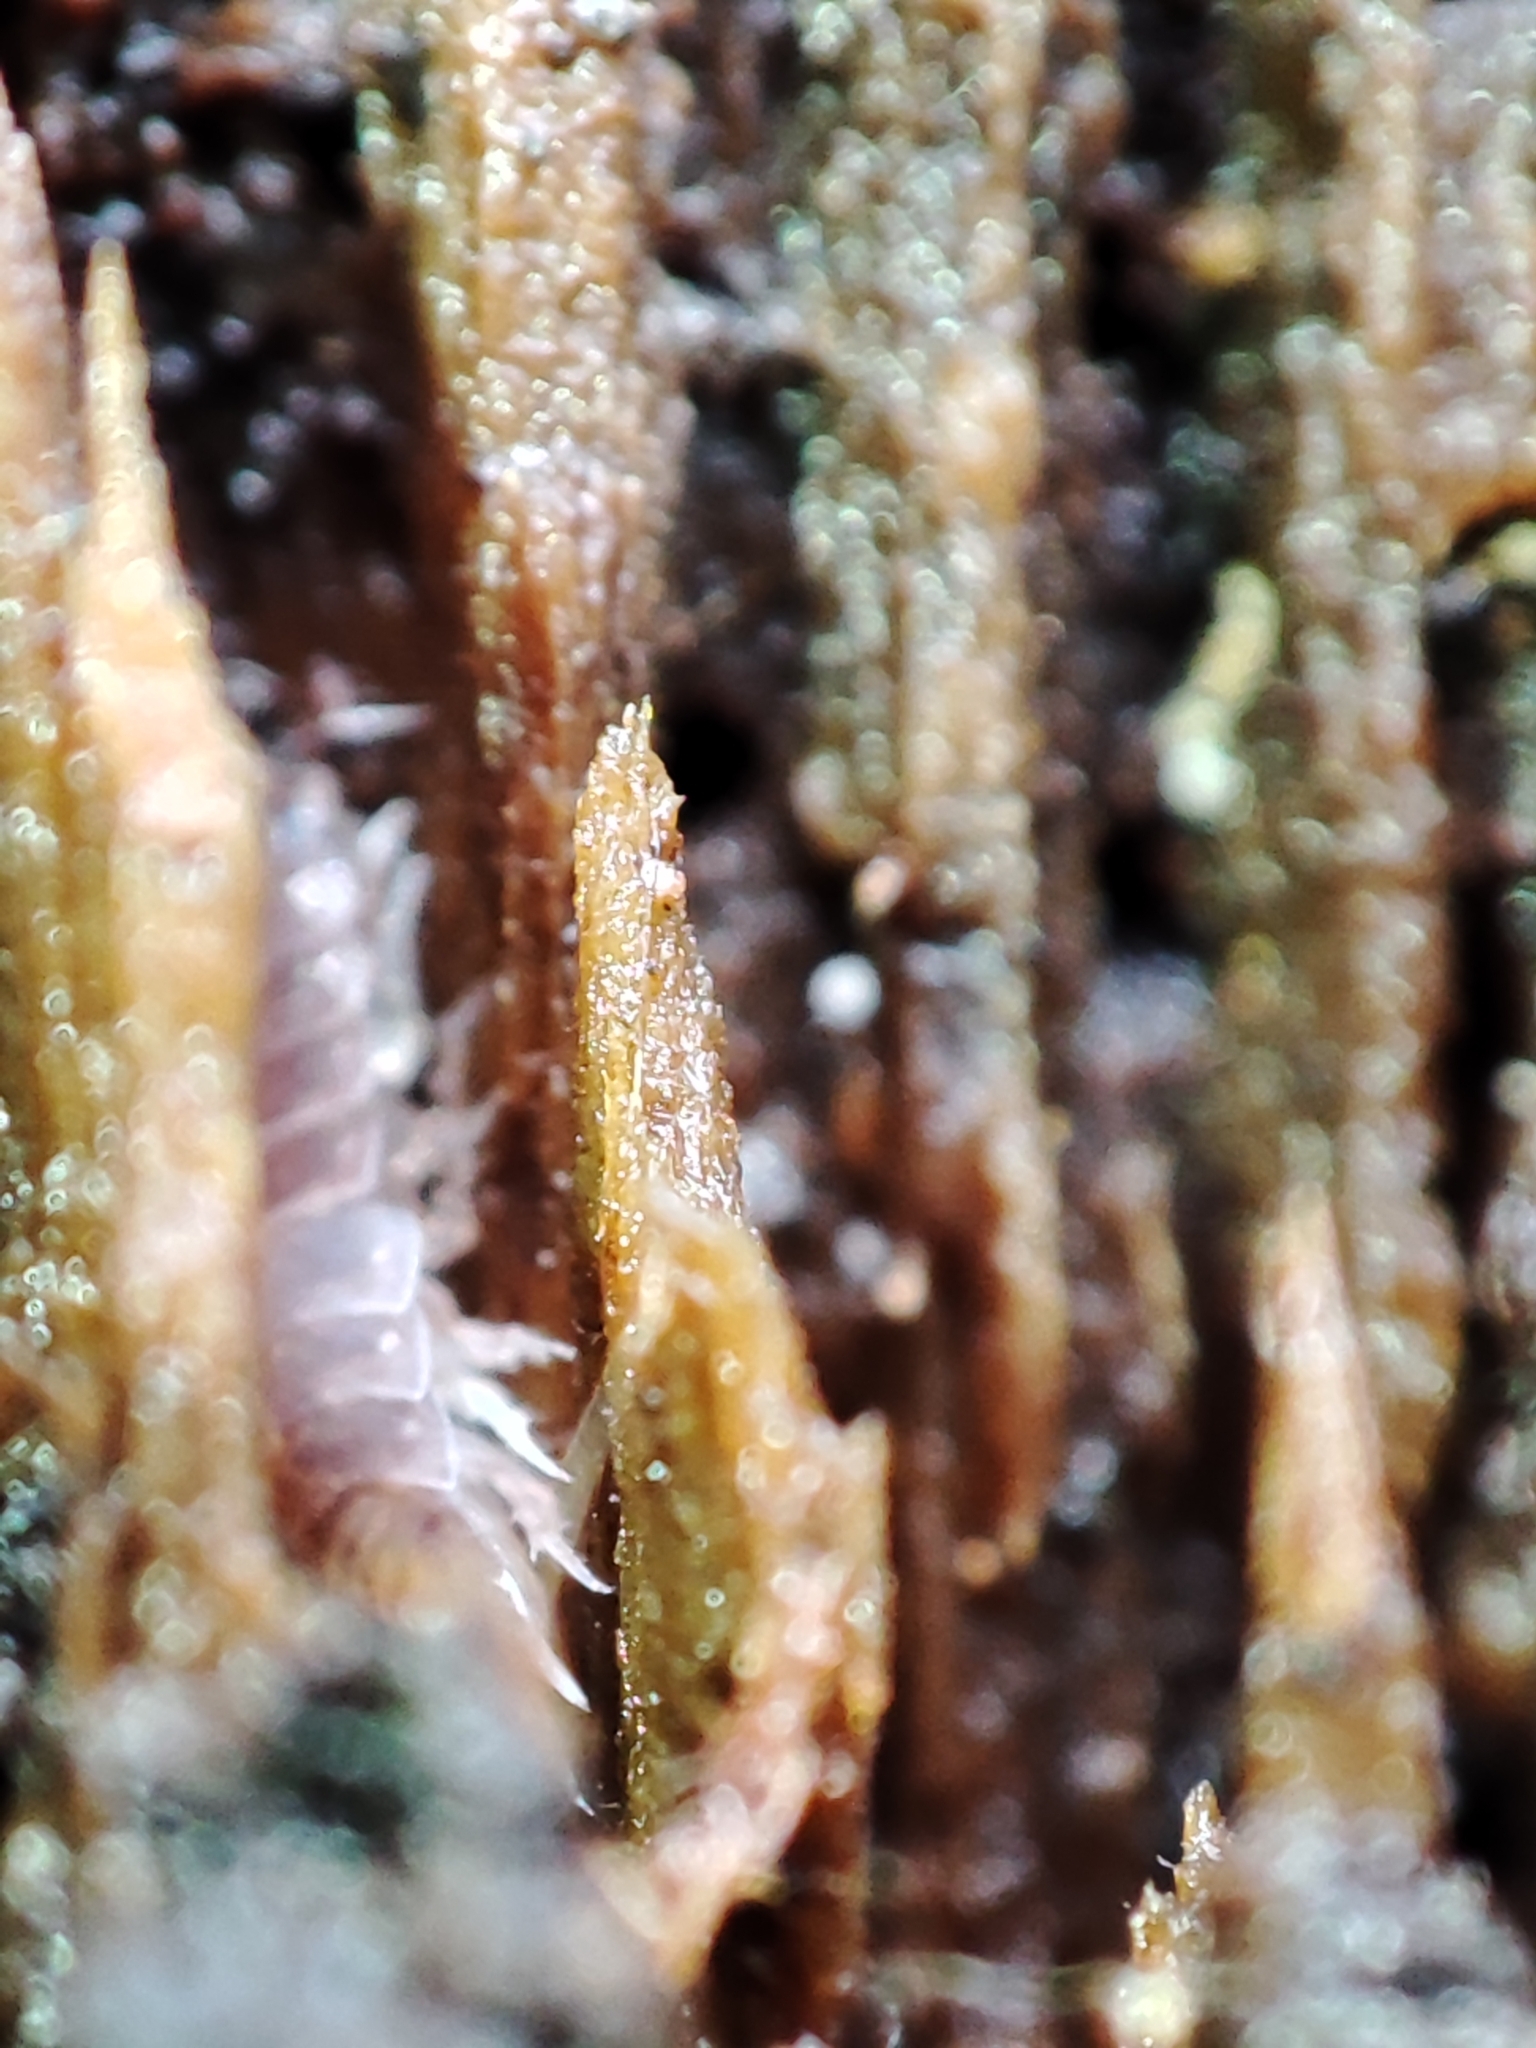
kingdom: Animalia
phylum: Arthropoda
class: Malacostraca
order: Isopoda
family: Trichoniscidae
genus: Hyloniscus
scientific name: Hyloniscus riparius
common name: Isopod
